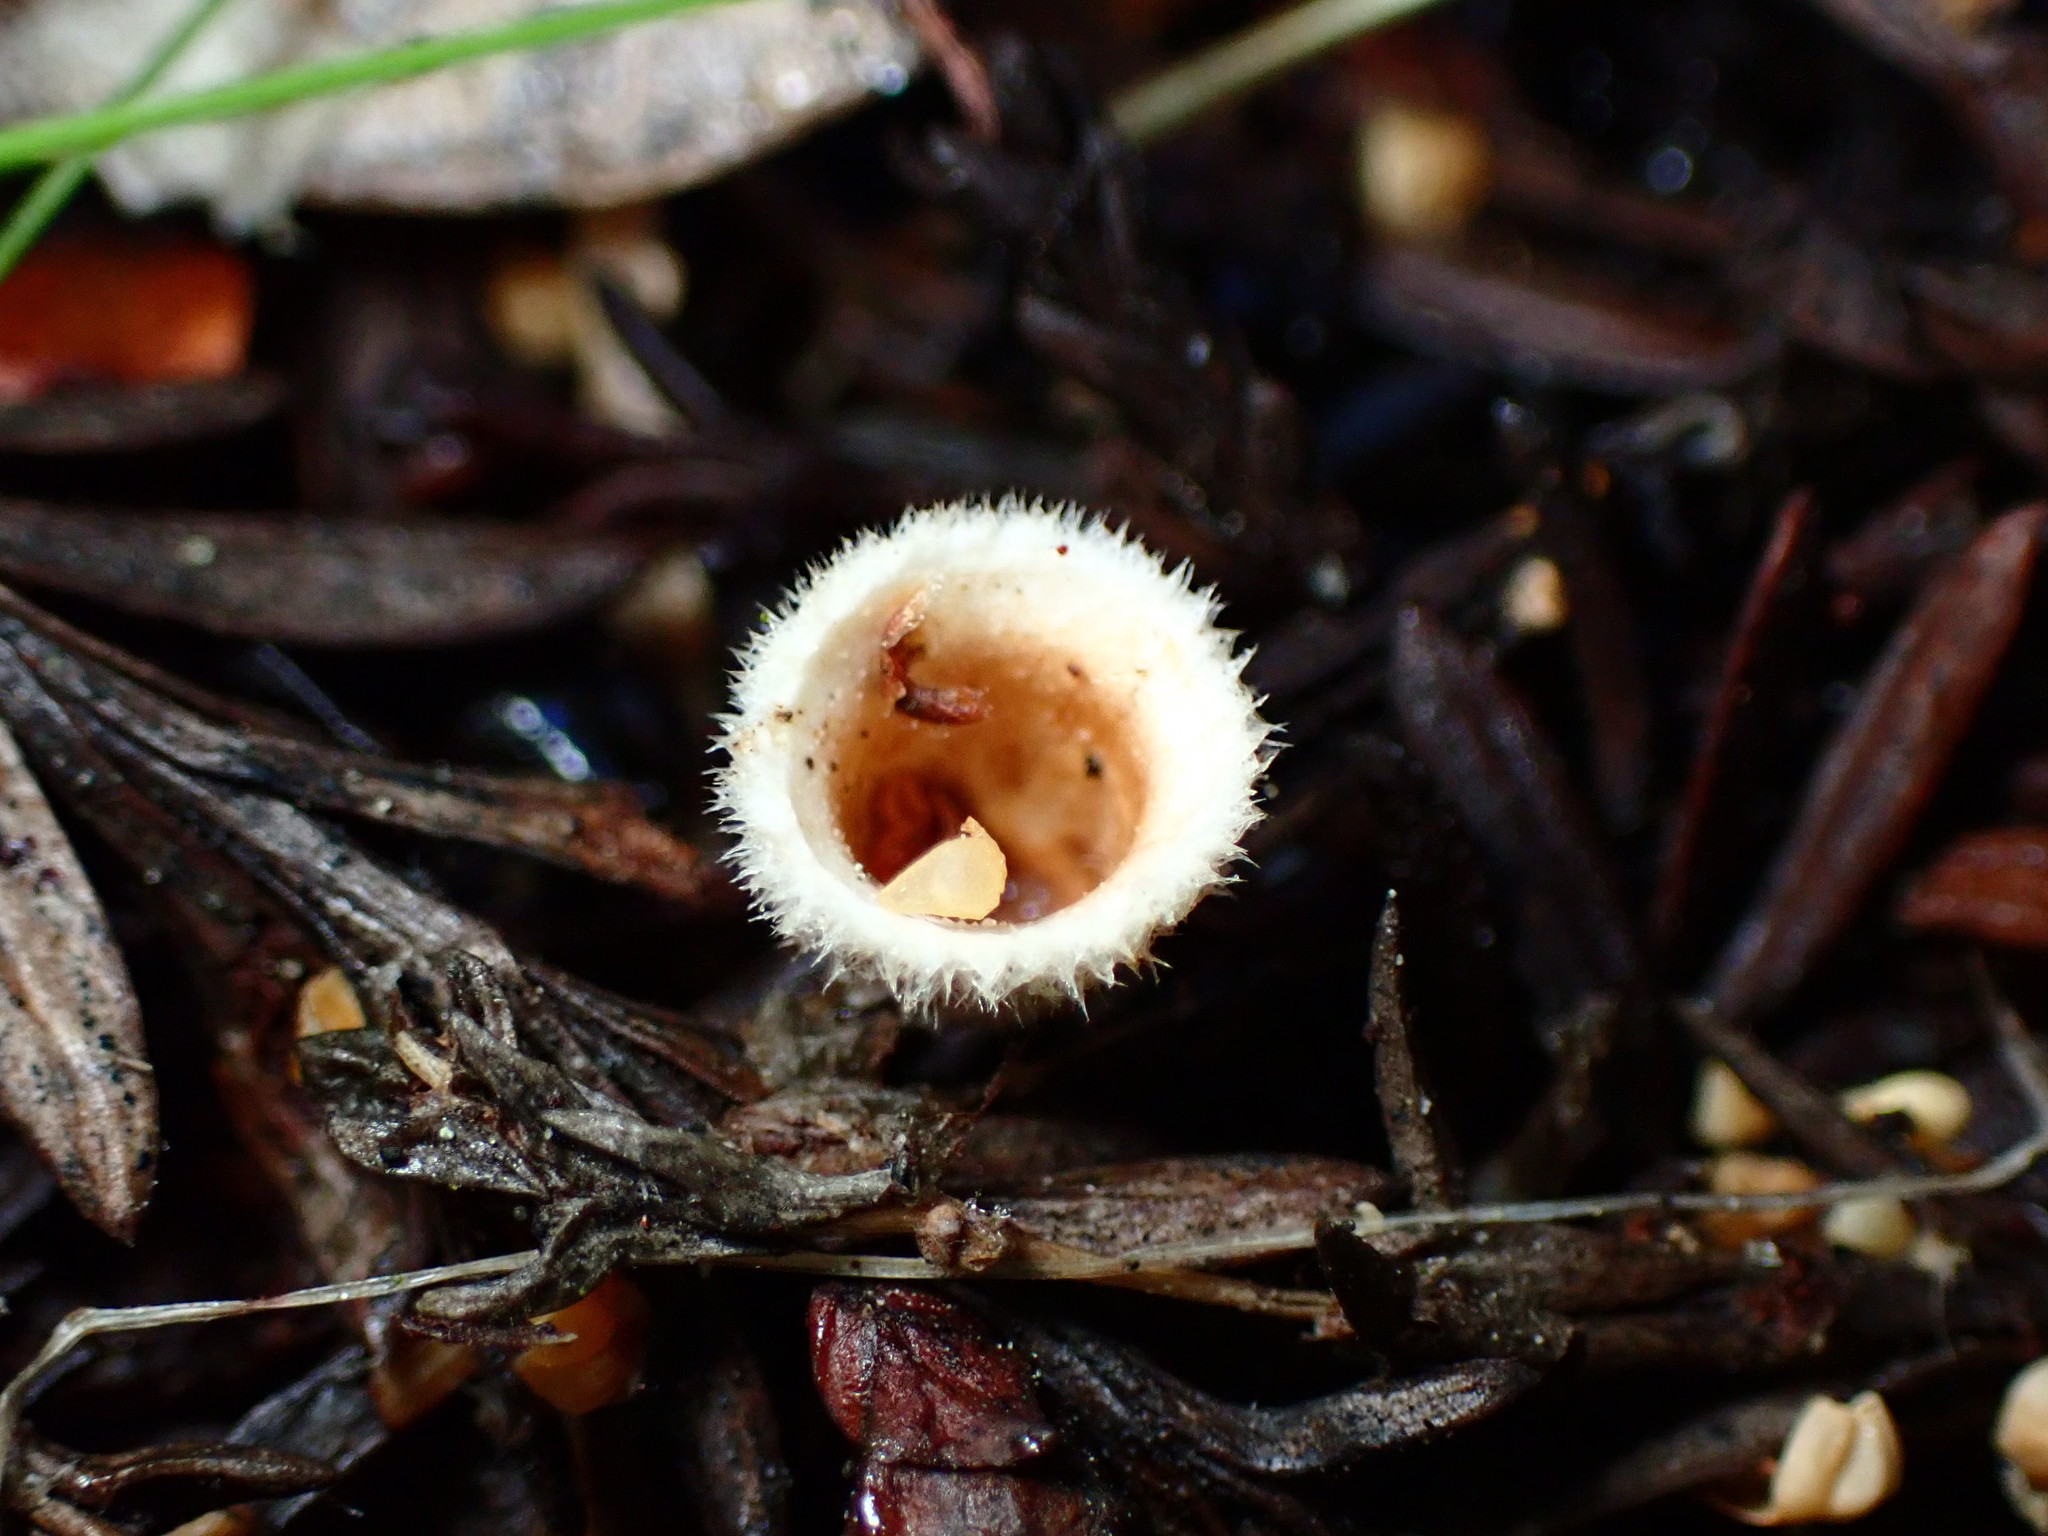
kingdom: Fungi
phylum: Basidiomycota
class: Agaricomycetes
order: Agaricales
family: Agaricaceae
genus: Nidula
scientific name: Nidula niveotomentosa
